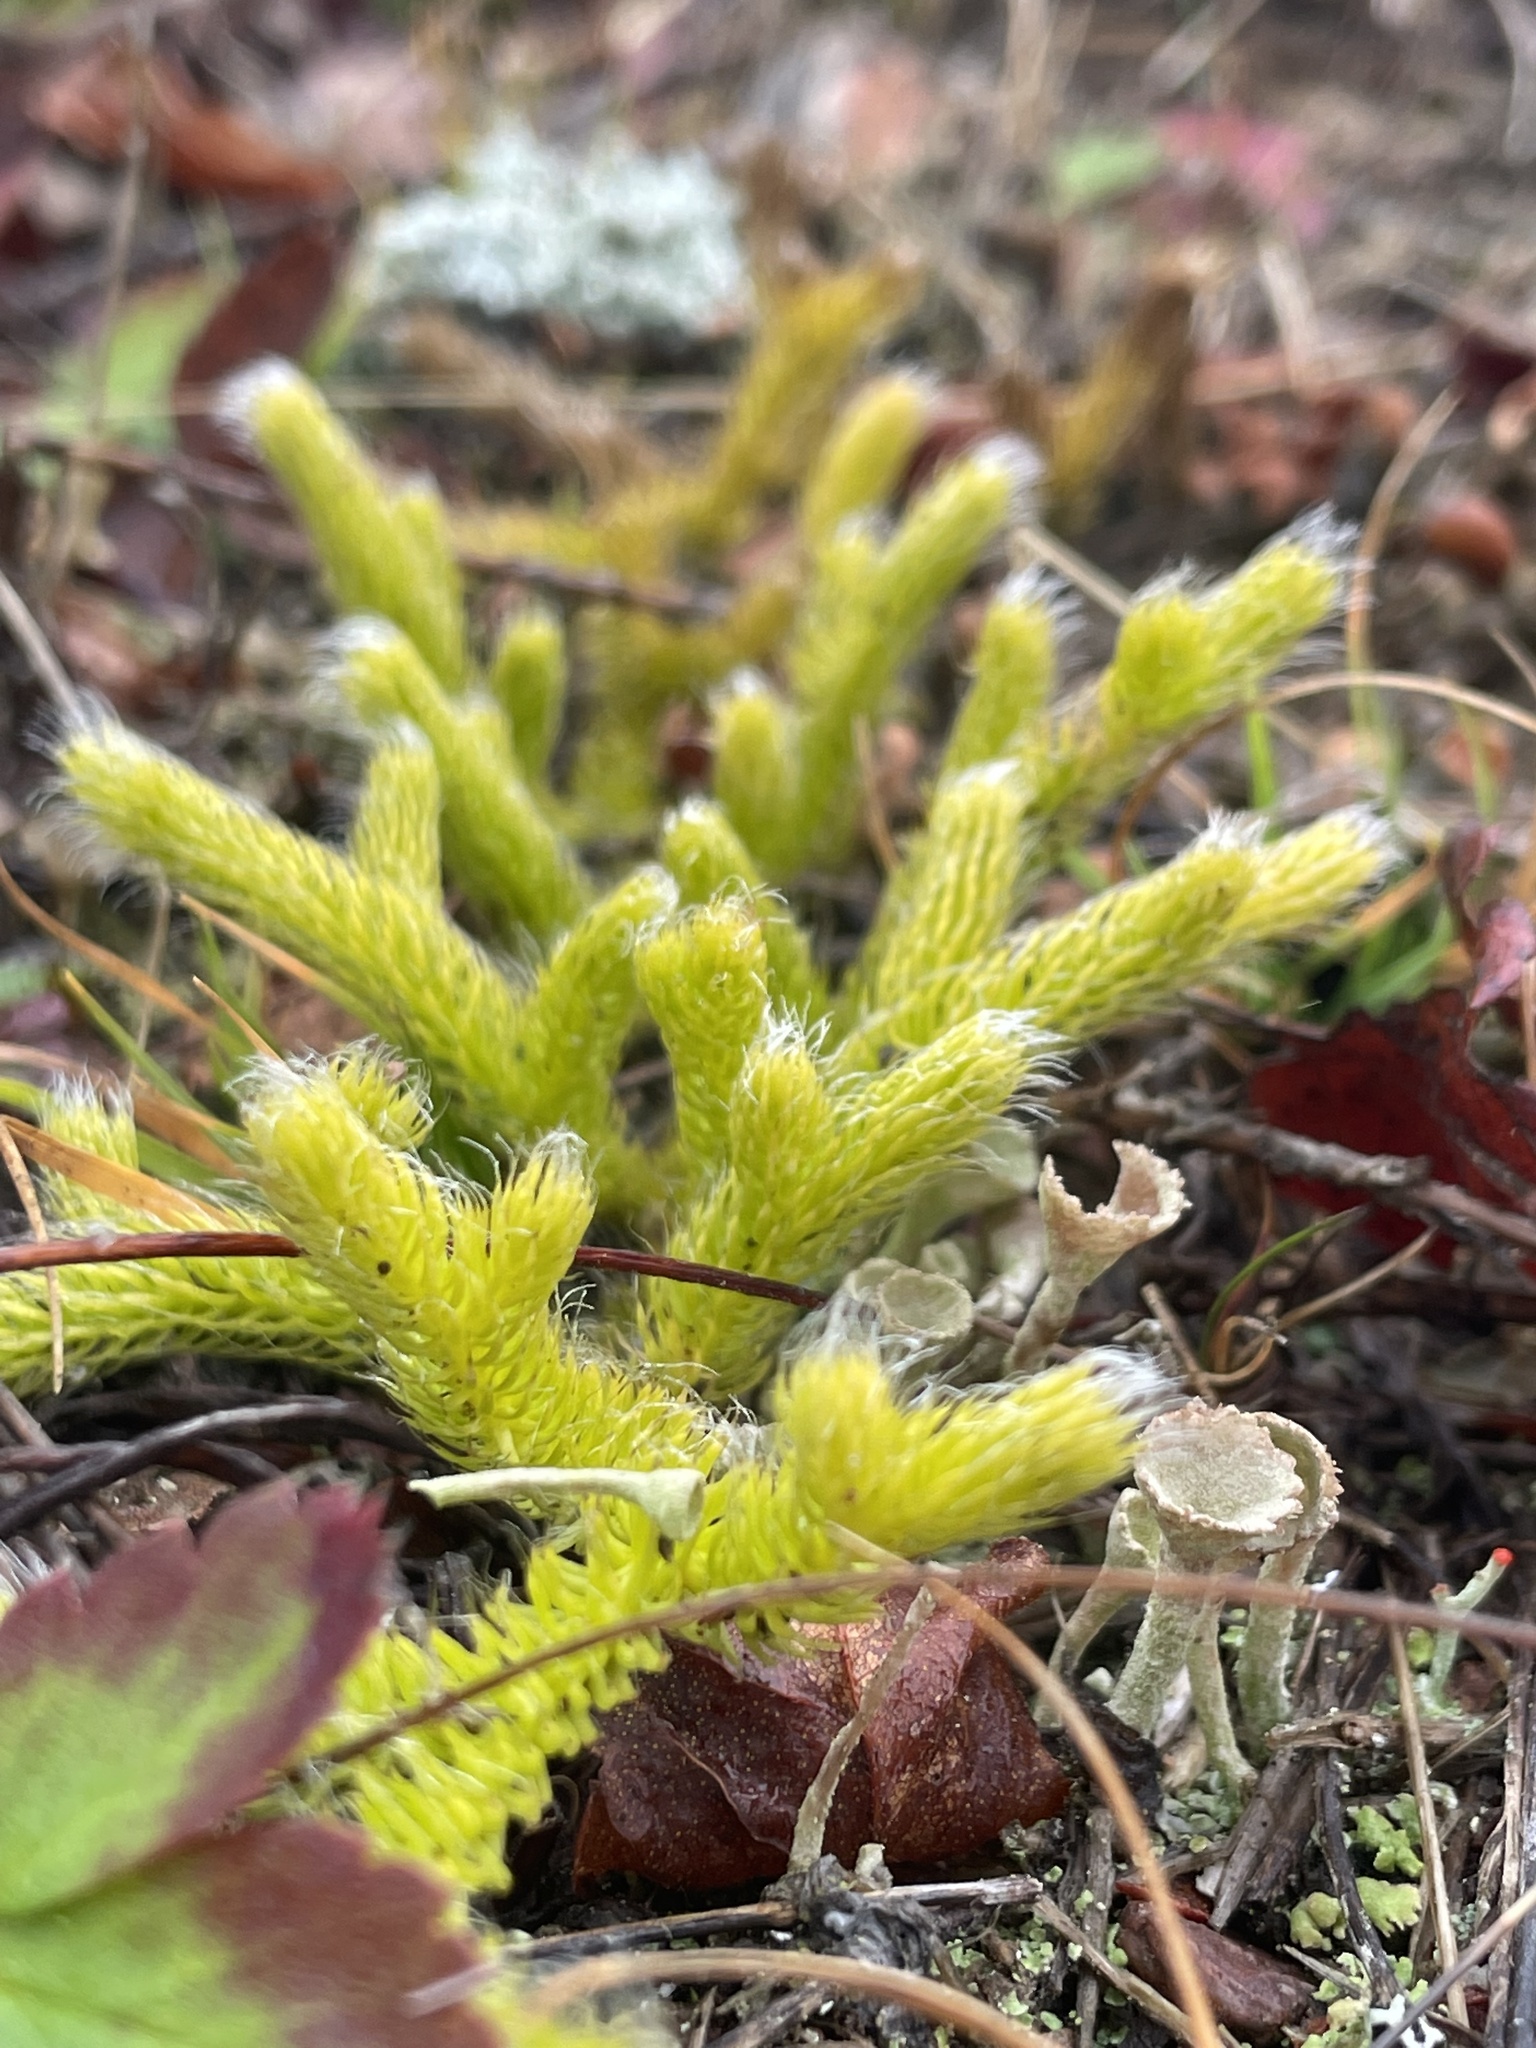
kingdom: Plantae
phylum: Tracheophyta
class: Lycopodiopsida
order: Lycopodiales
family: Lycopodiaceae
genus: Lycopodium
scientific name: Lycopodium clavatum
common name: Stag's-horn clubmoss
